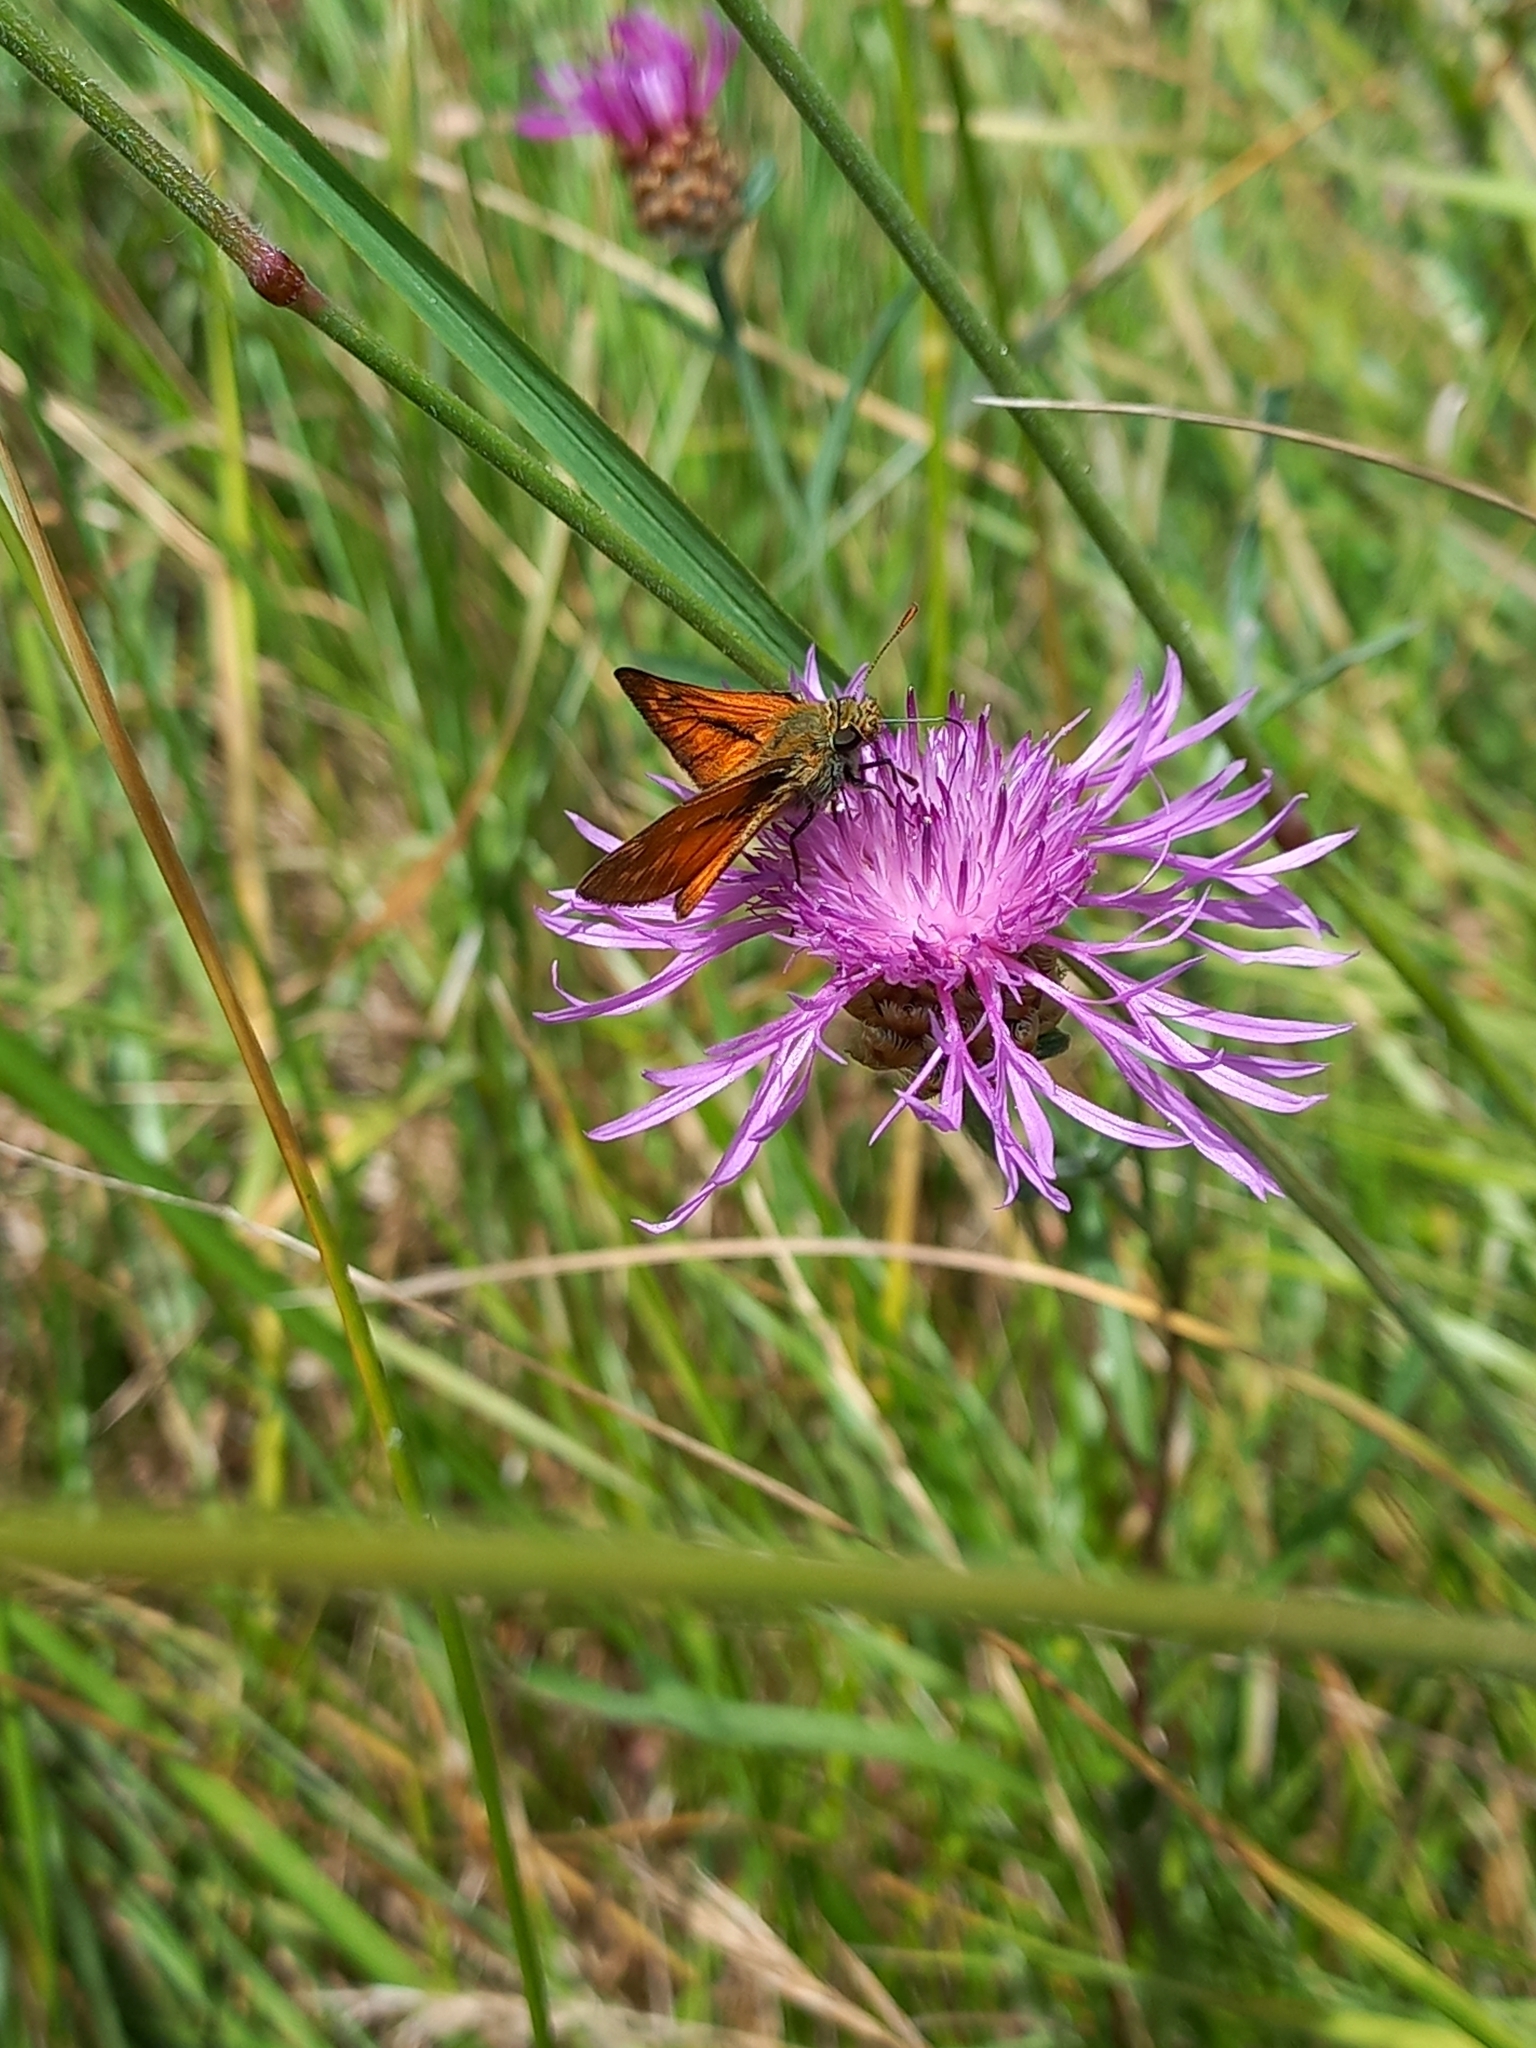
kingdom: Animalia
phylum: Arthropoda
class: Insecta
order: Lepidoptera
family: Hesperiidae
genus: Ochlodes
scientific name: Ochlodes venata
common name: Large skipper
